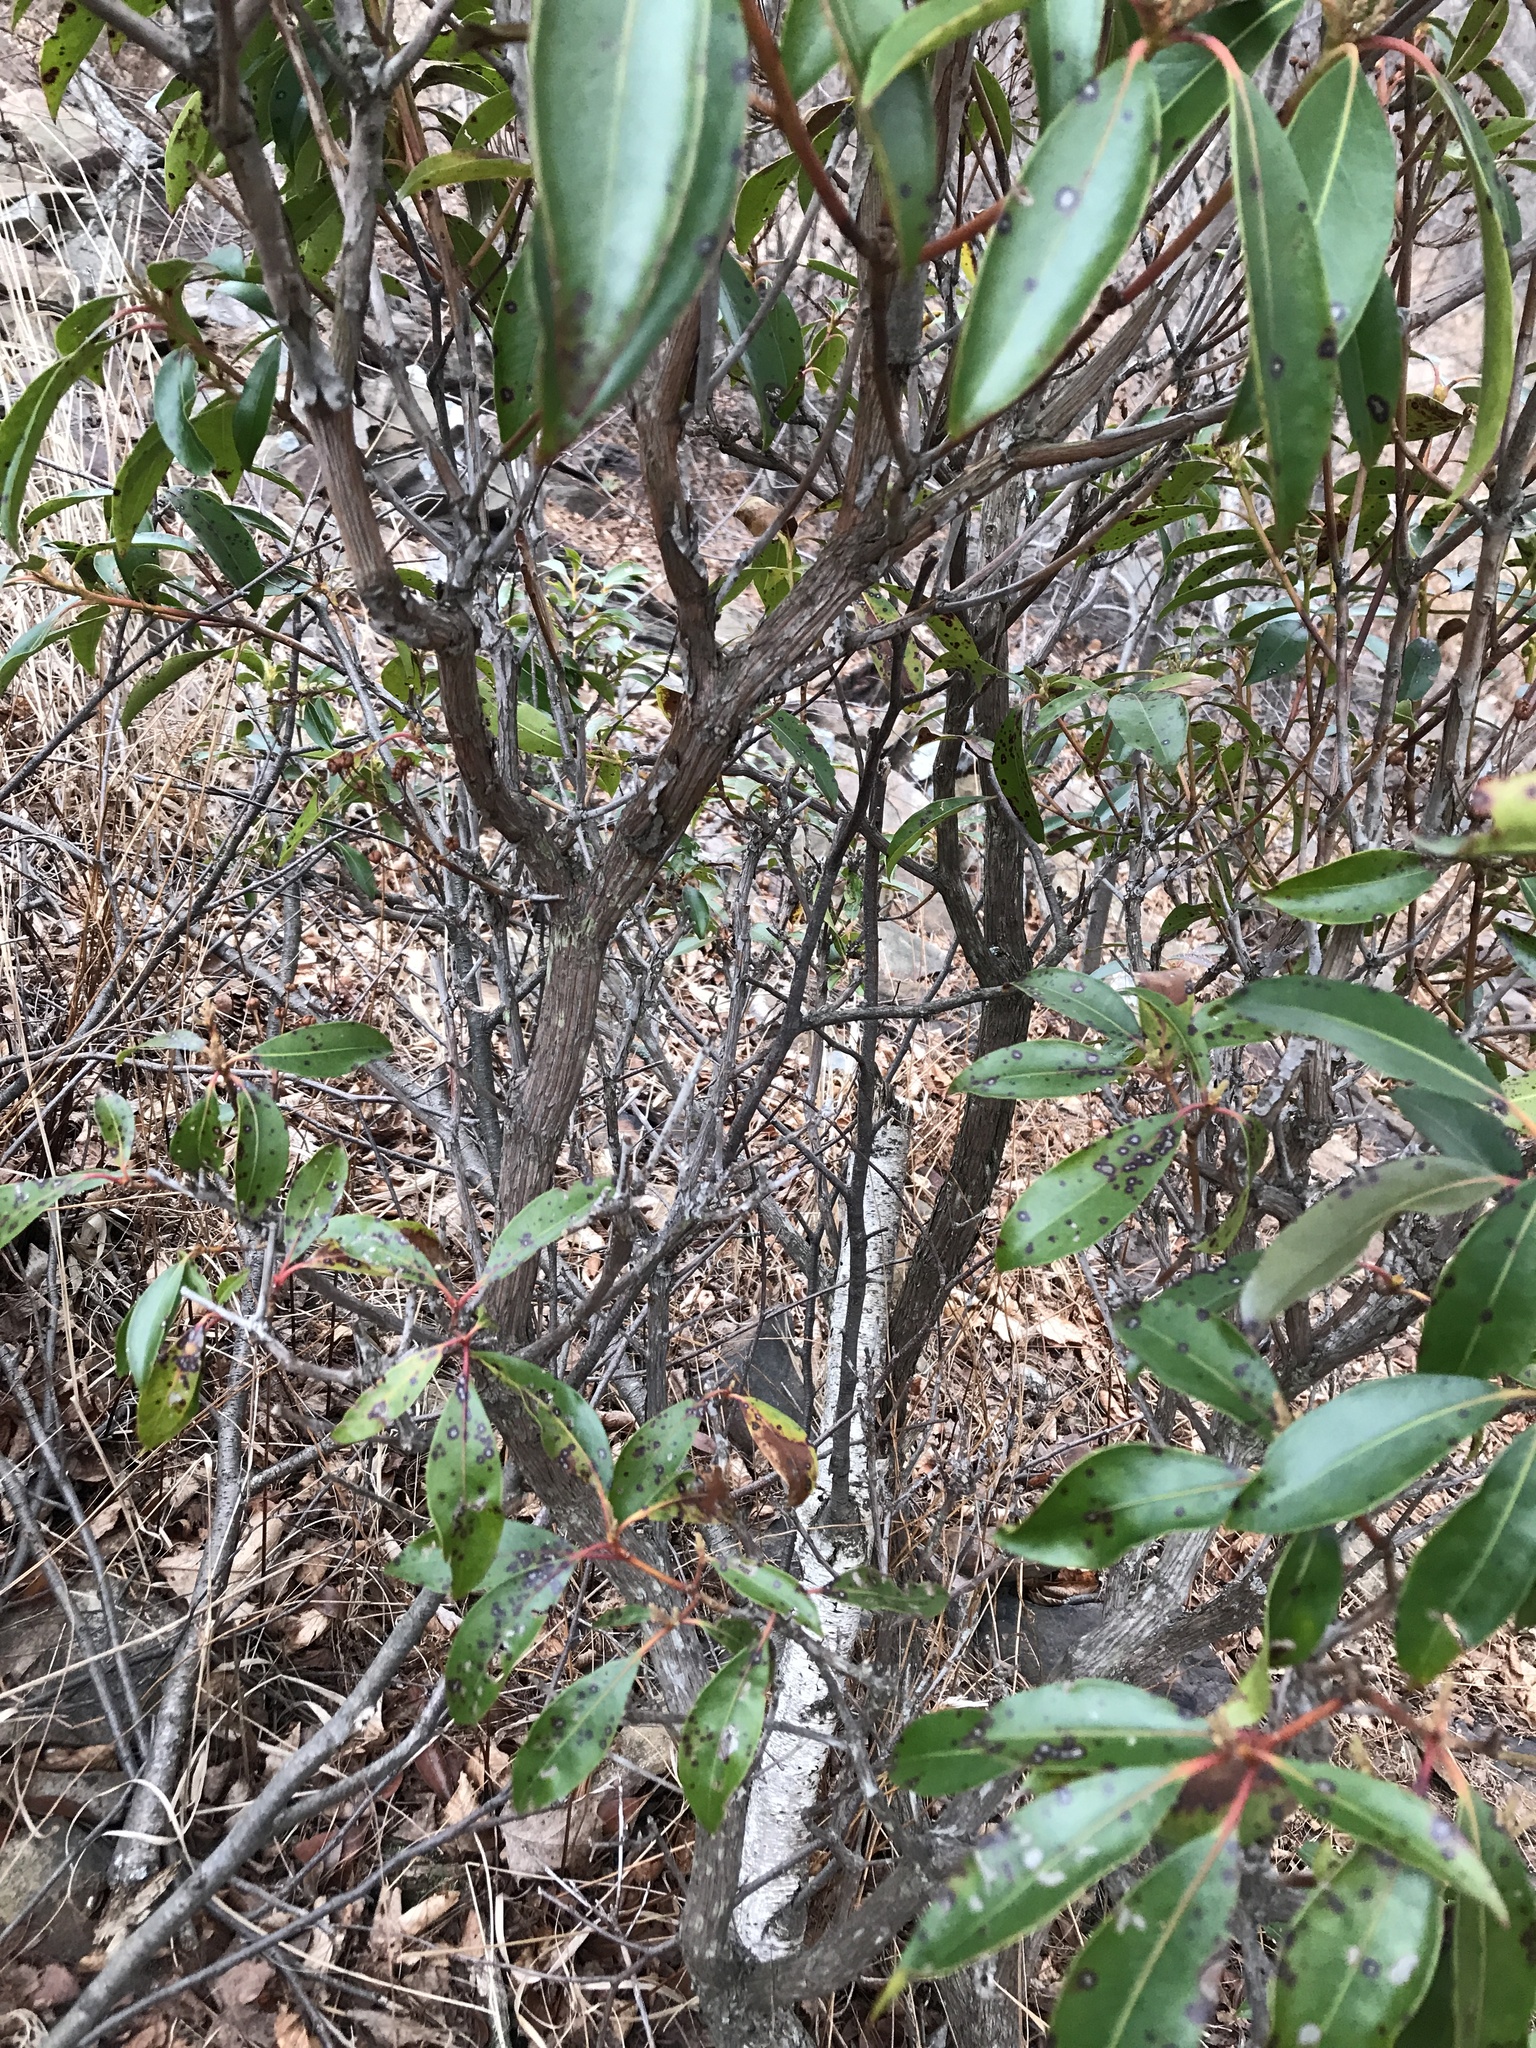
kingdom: Plantae
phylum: Tracheophyta
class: Magnoliopsida
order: Ericales
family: Ericaceae
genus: Kalmia
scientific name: Kalmia latifolia
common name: Mountain-laurel
